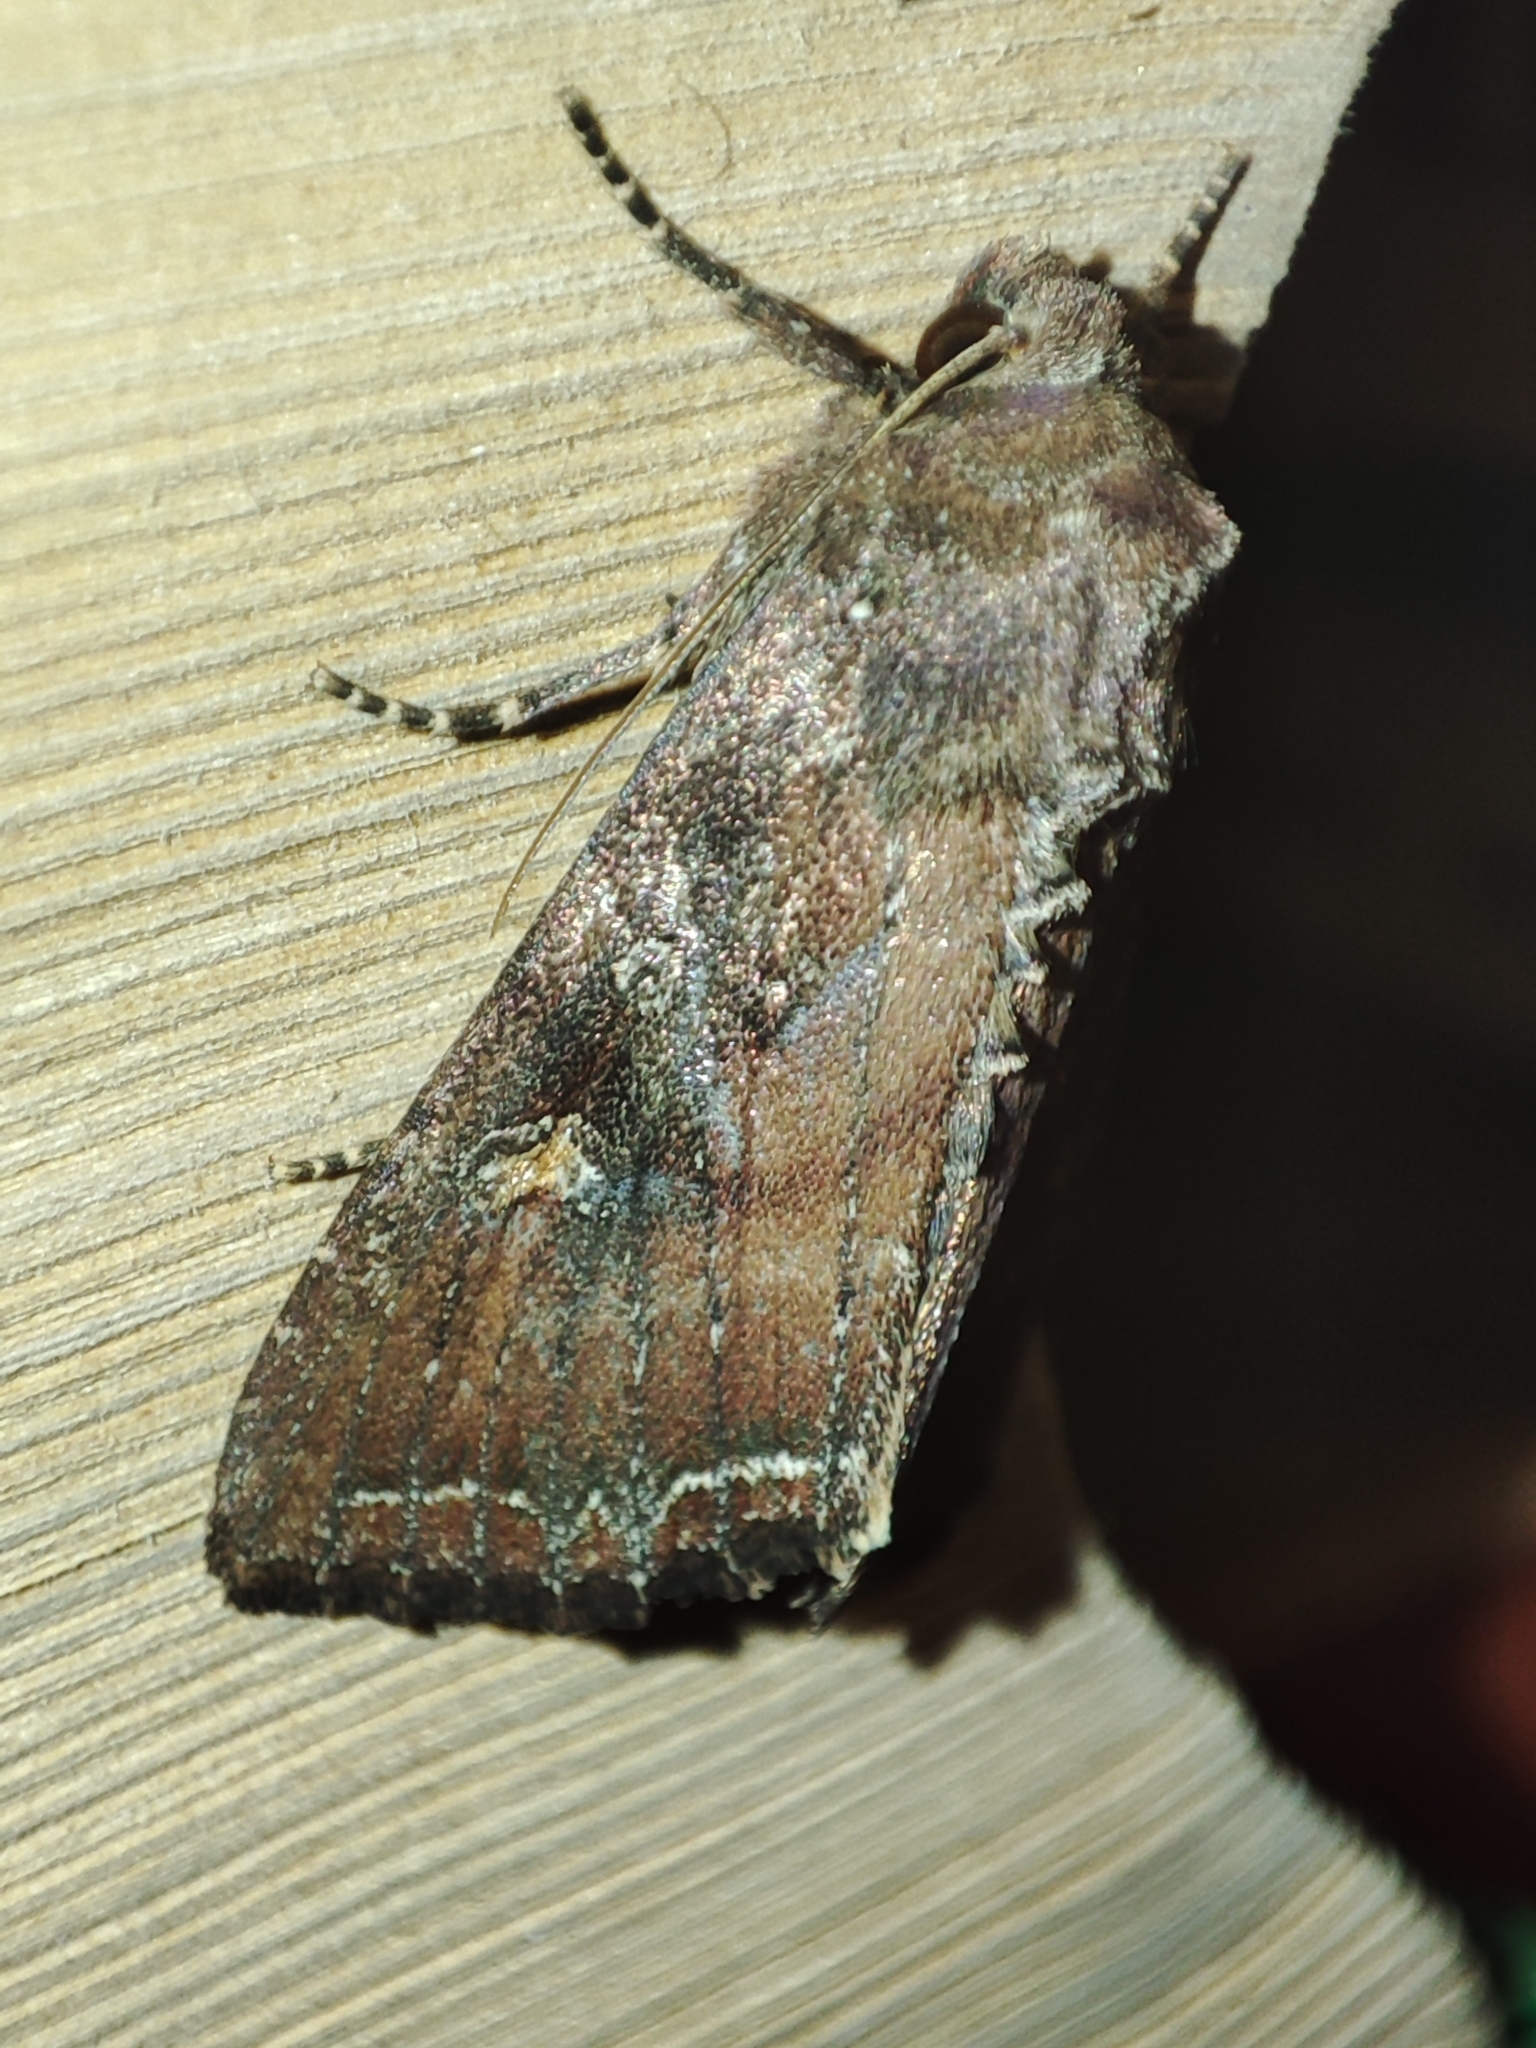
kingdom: Animalia
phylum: Arthropoda
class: Insecta
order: Lepidoptera
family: Noctuidae
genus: Lacanobia
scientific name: Lacanobia oleracea
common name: Bright-line brown-eye
